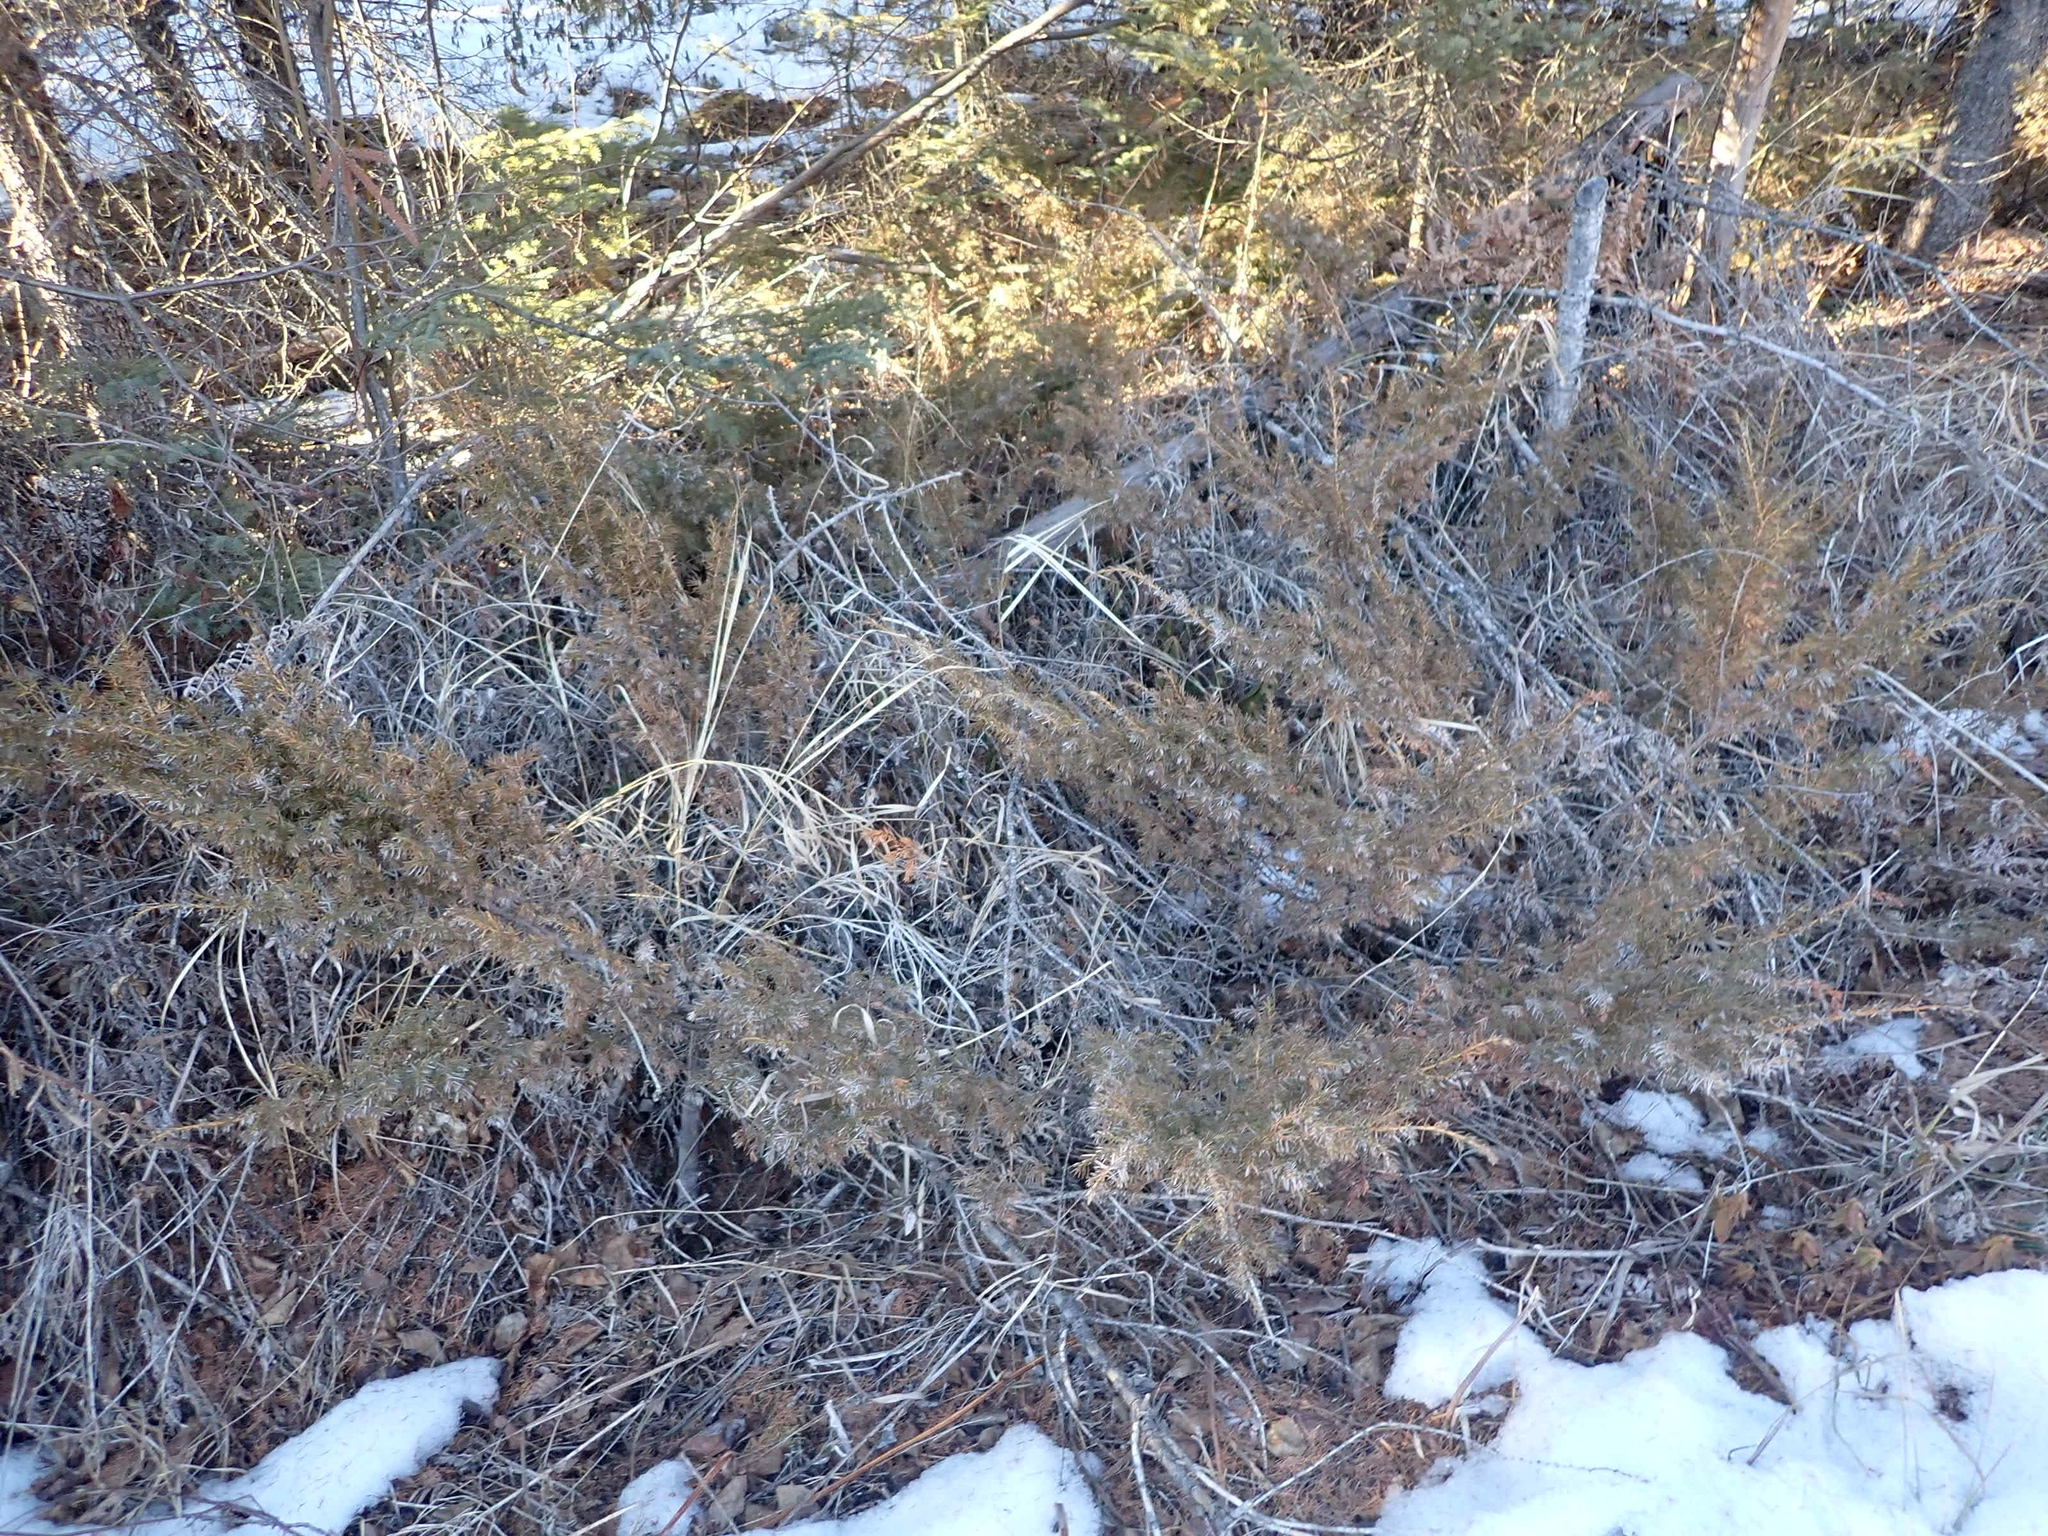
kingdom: Plantae
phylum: Tracheophyta
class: Pinopsida
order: Pinales
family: Cupressaceae
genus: Juniperus
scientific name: Juniperus communis
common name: Common juniper
